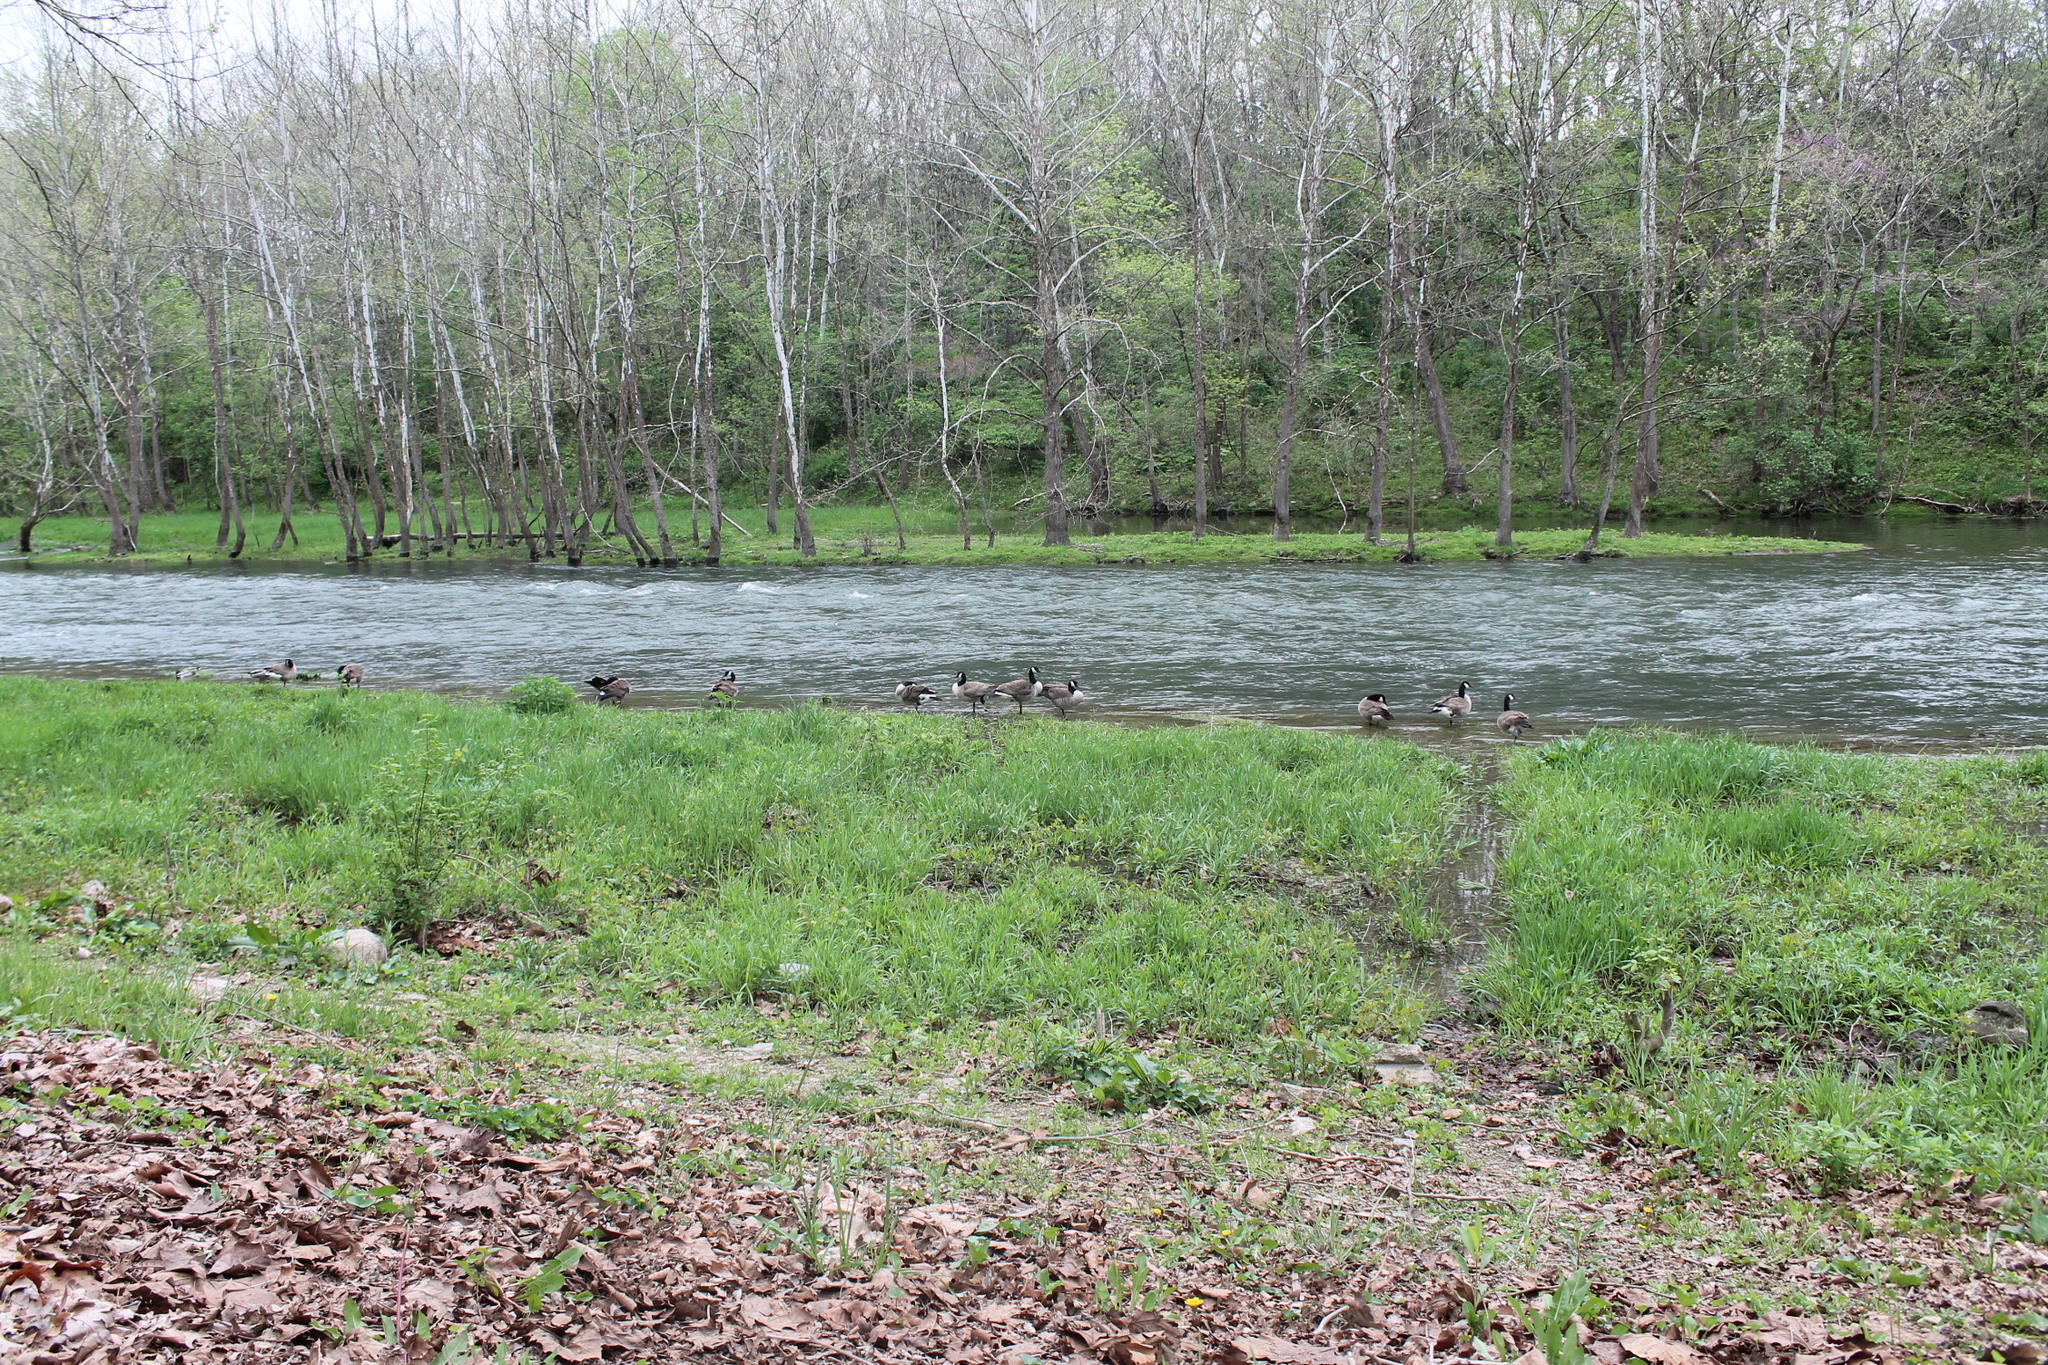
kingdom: Animalia
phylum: Chordata
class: Aves
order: Anseriformes
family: Anatidae
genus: Branta
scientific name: Branta canadensis
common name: Canada goose
